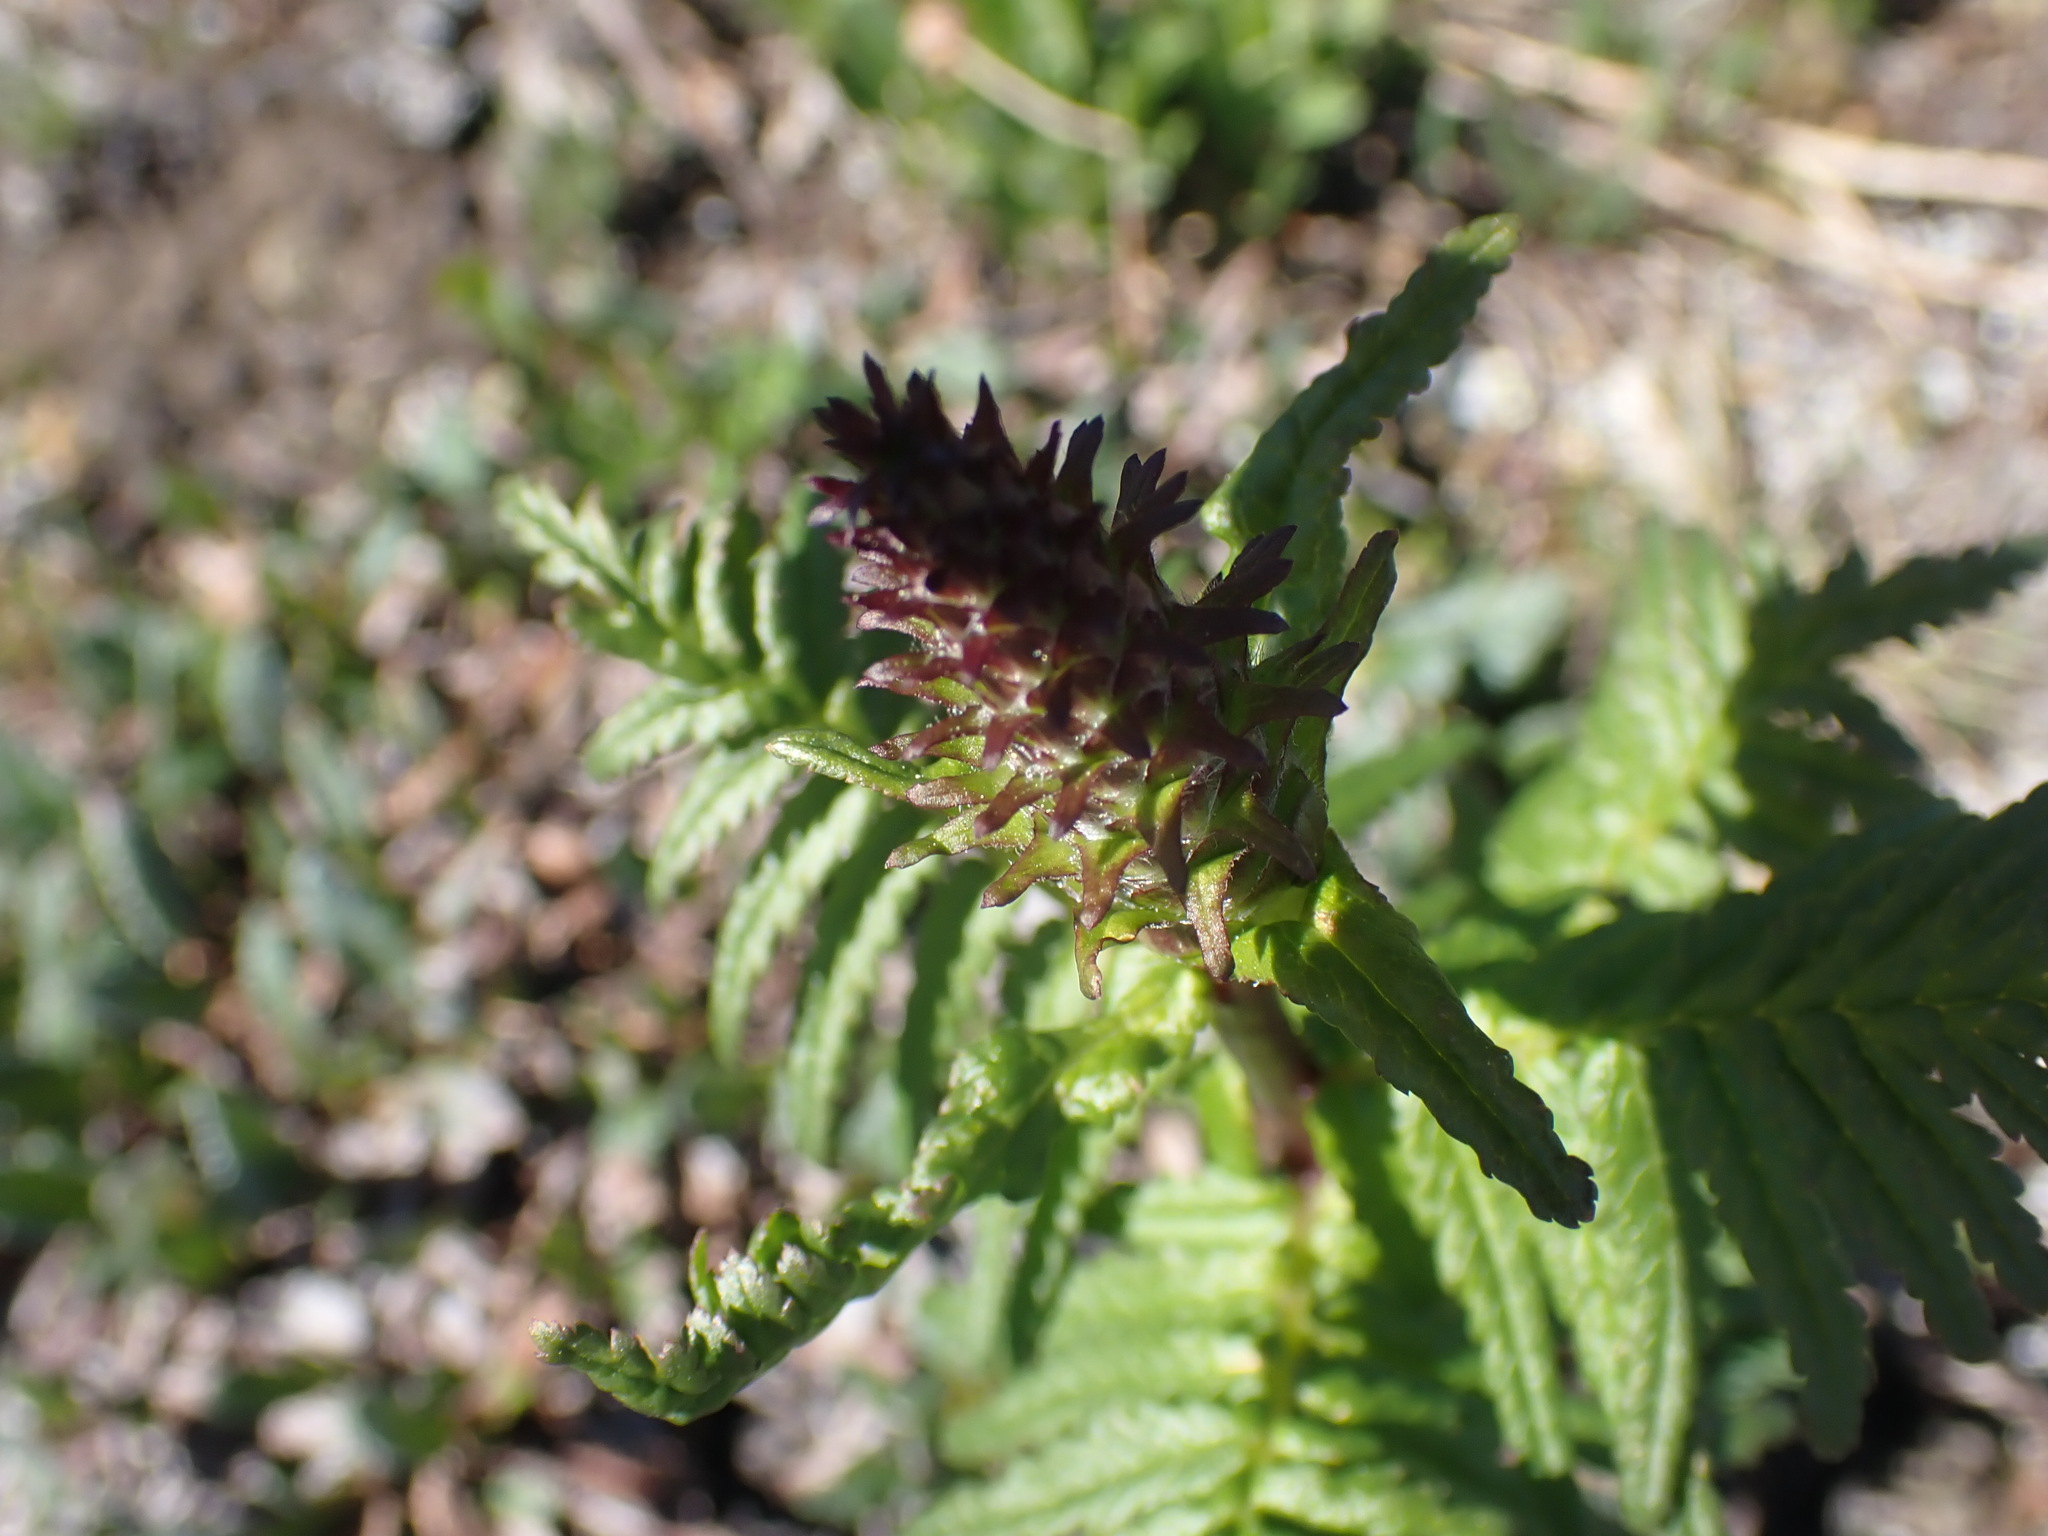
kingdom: Plantae
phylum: Tracheophyta
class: Magnoliopsida
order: Lamiales
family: Orobanchaceae
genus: Pedicularis
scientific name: Pedicularis bracteosa
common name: Bracted lousewort
